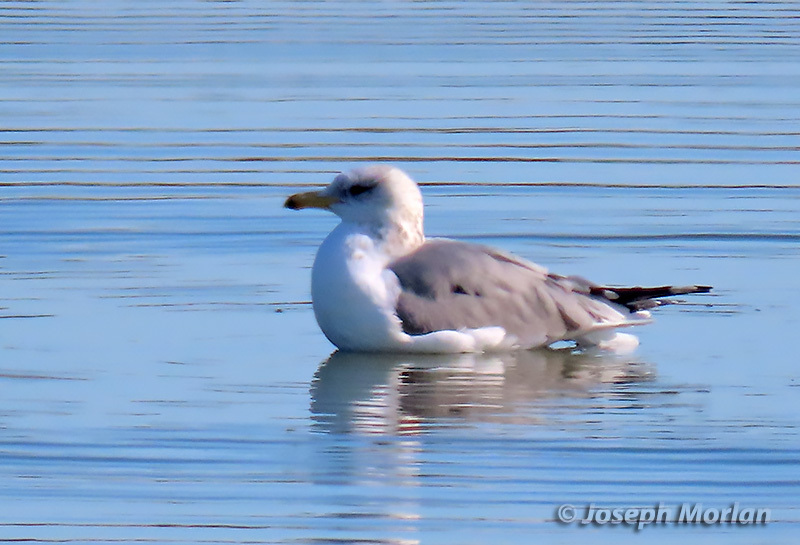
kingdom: Animalia
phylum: Chordata
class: Aves
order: Charadriiformes
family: Laridae
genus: Larus
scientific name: Larus californicus
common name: California gull
